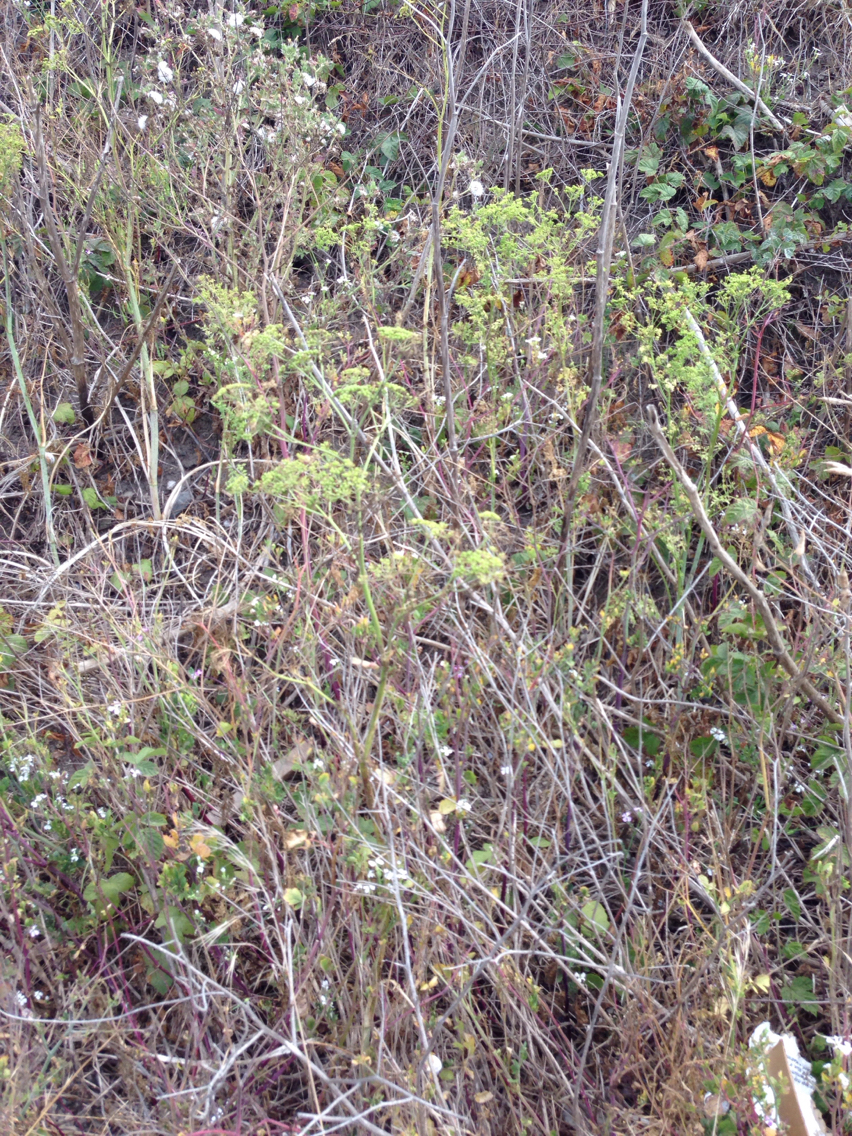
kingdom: Plantae
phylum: Tracheophyta
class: Magnoliopsida
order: Apiales
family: Apiaceae
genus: Conium
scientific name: Conium maculatum
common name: Hemlock
